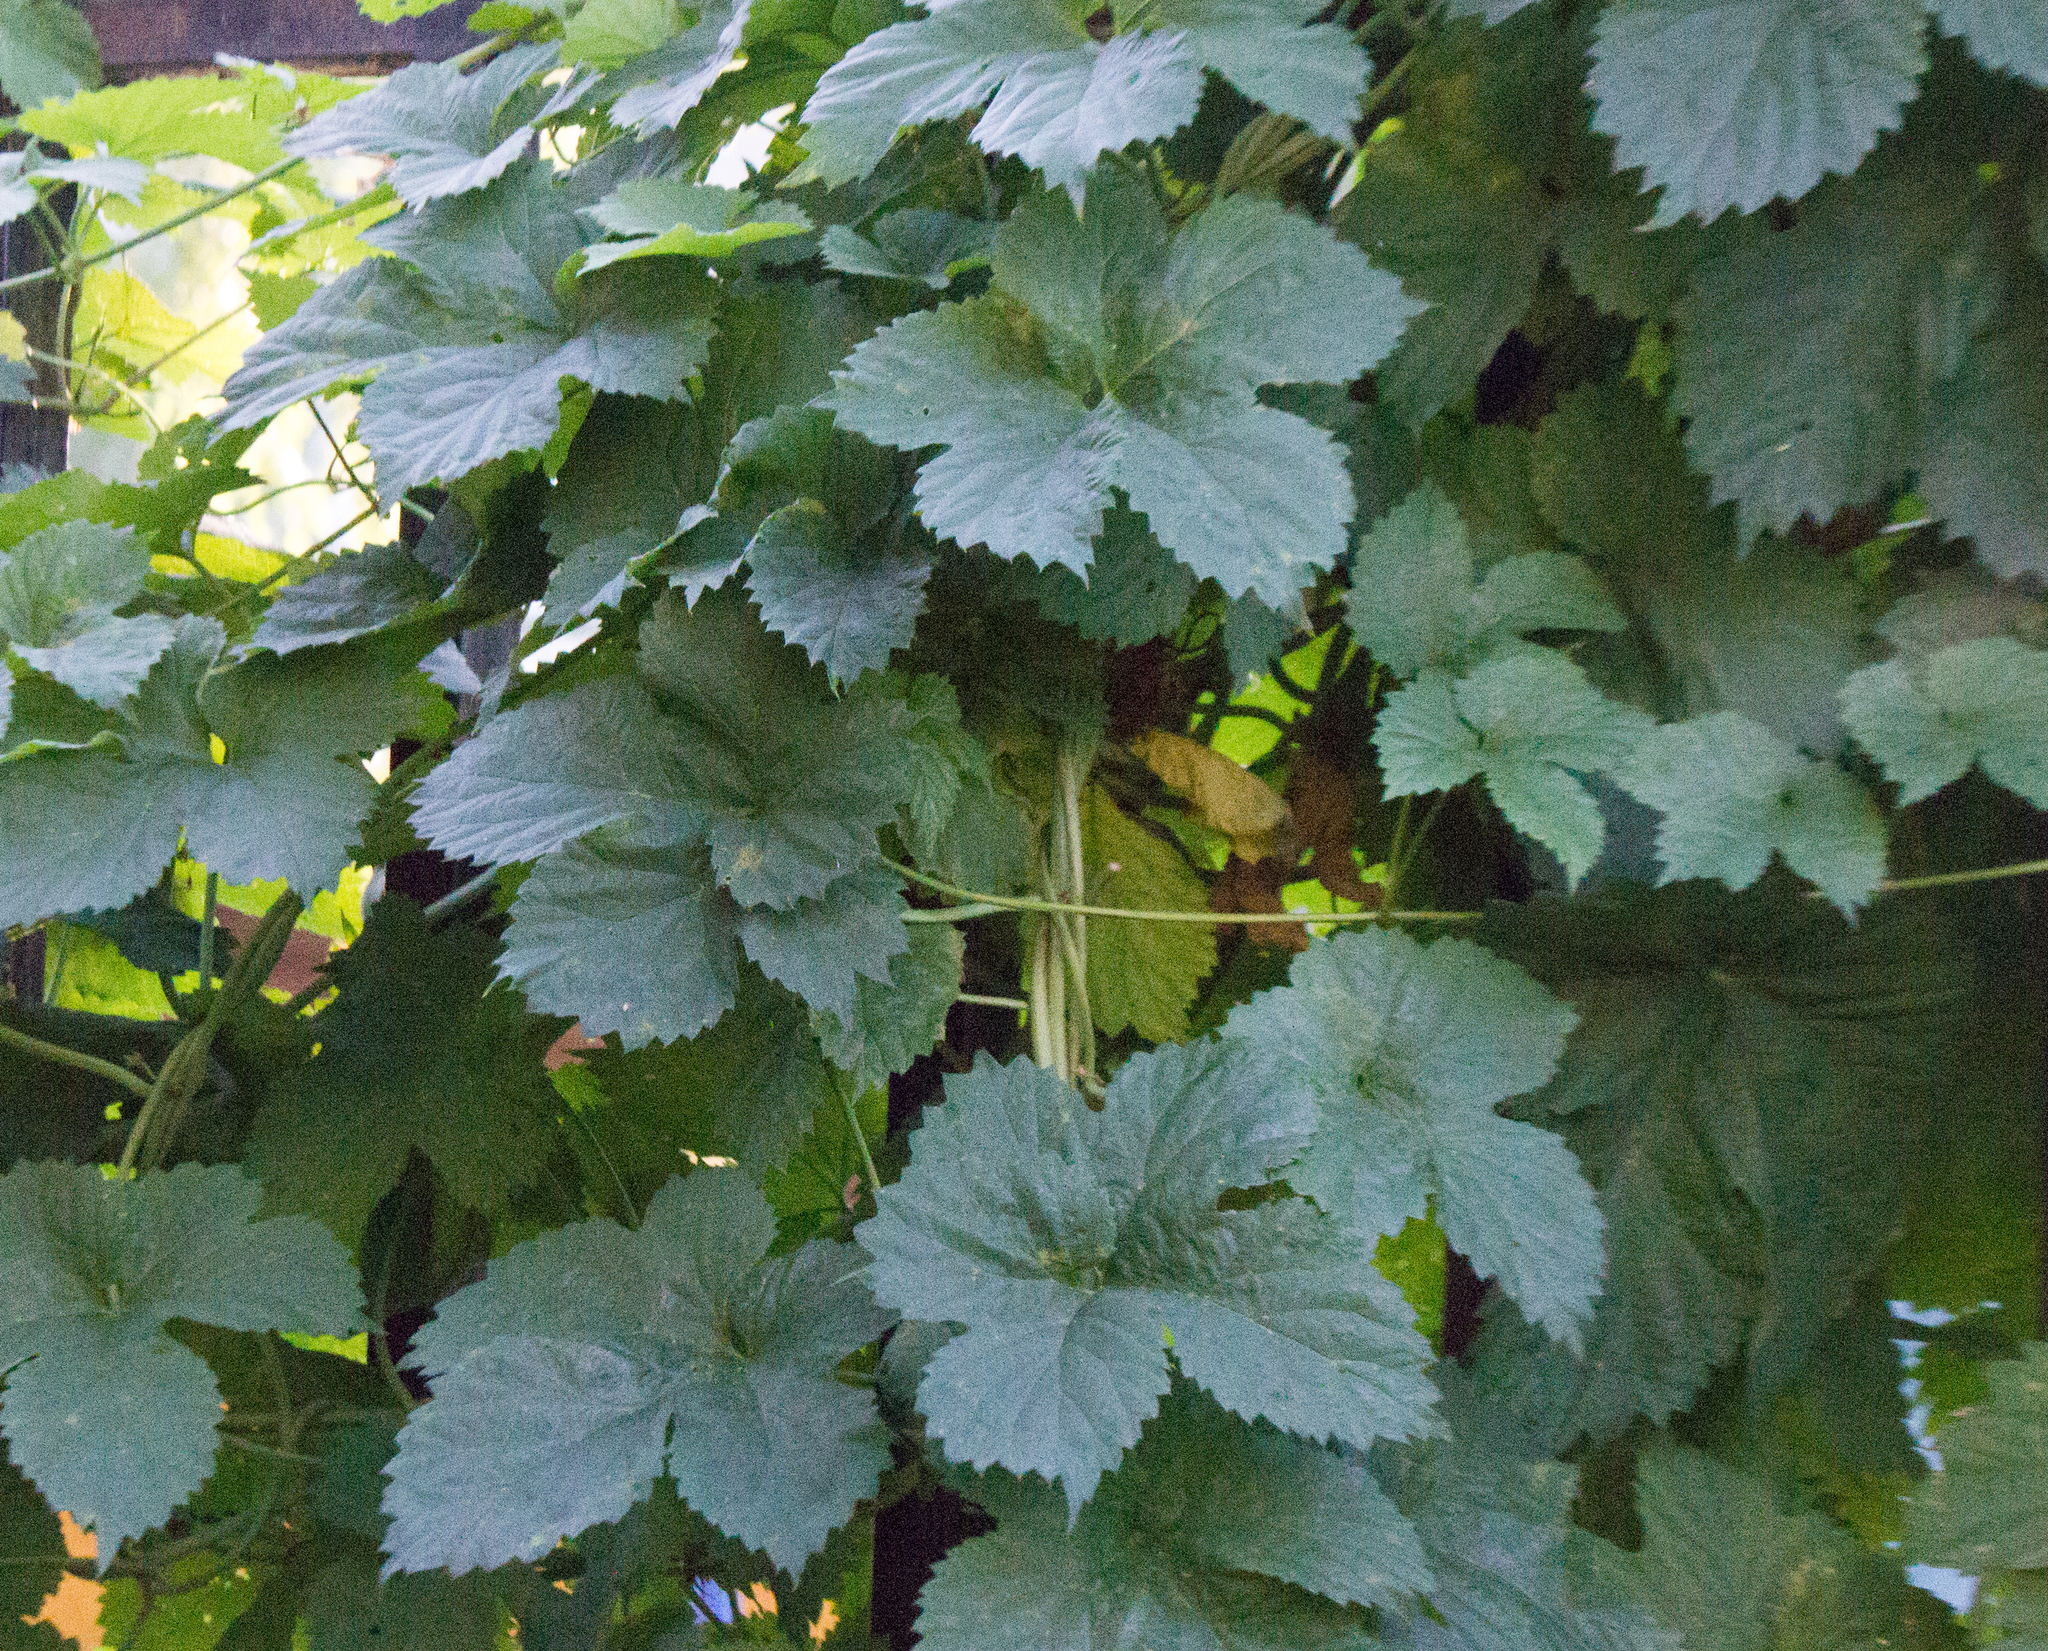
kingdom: Plantae
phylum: Tracheophyta
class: Magnoliopsida
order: Rosales
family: Cannabaceae
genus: Humulus
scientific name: Humulus lupulus
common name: Hop
